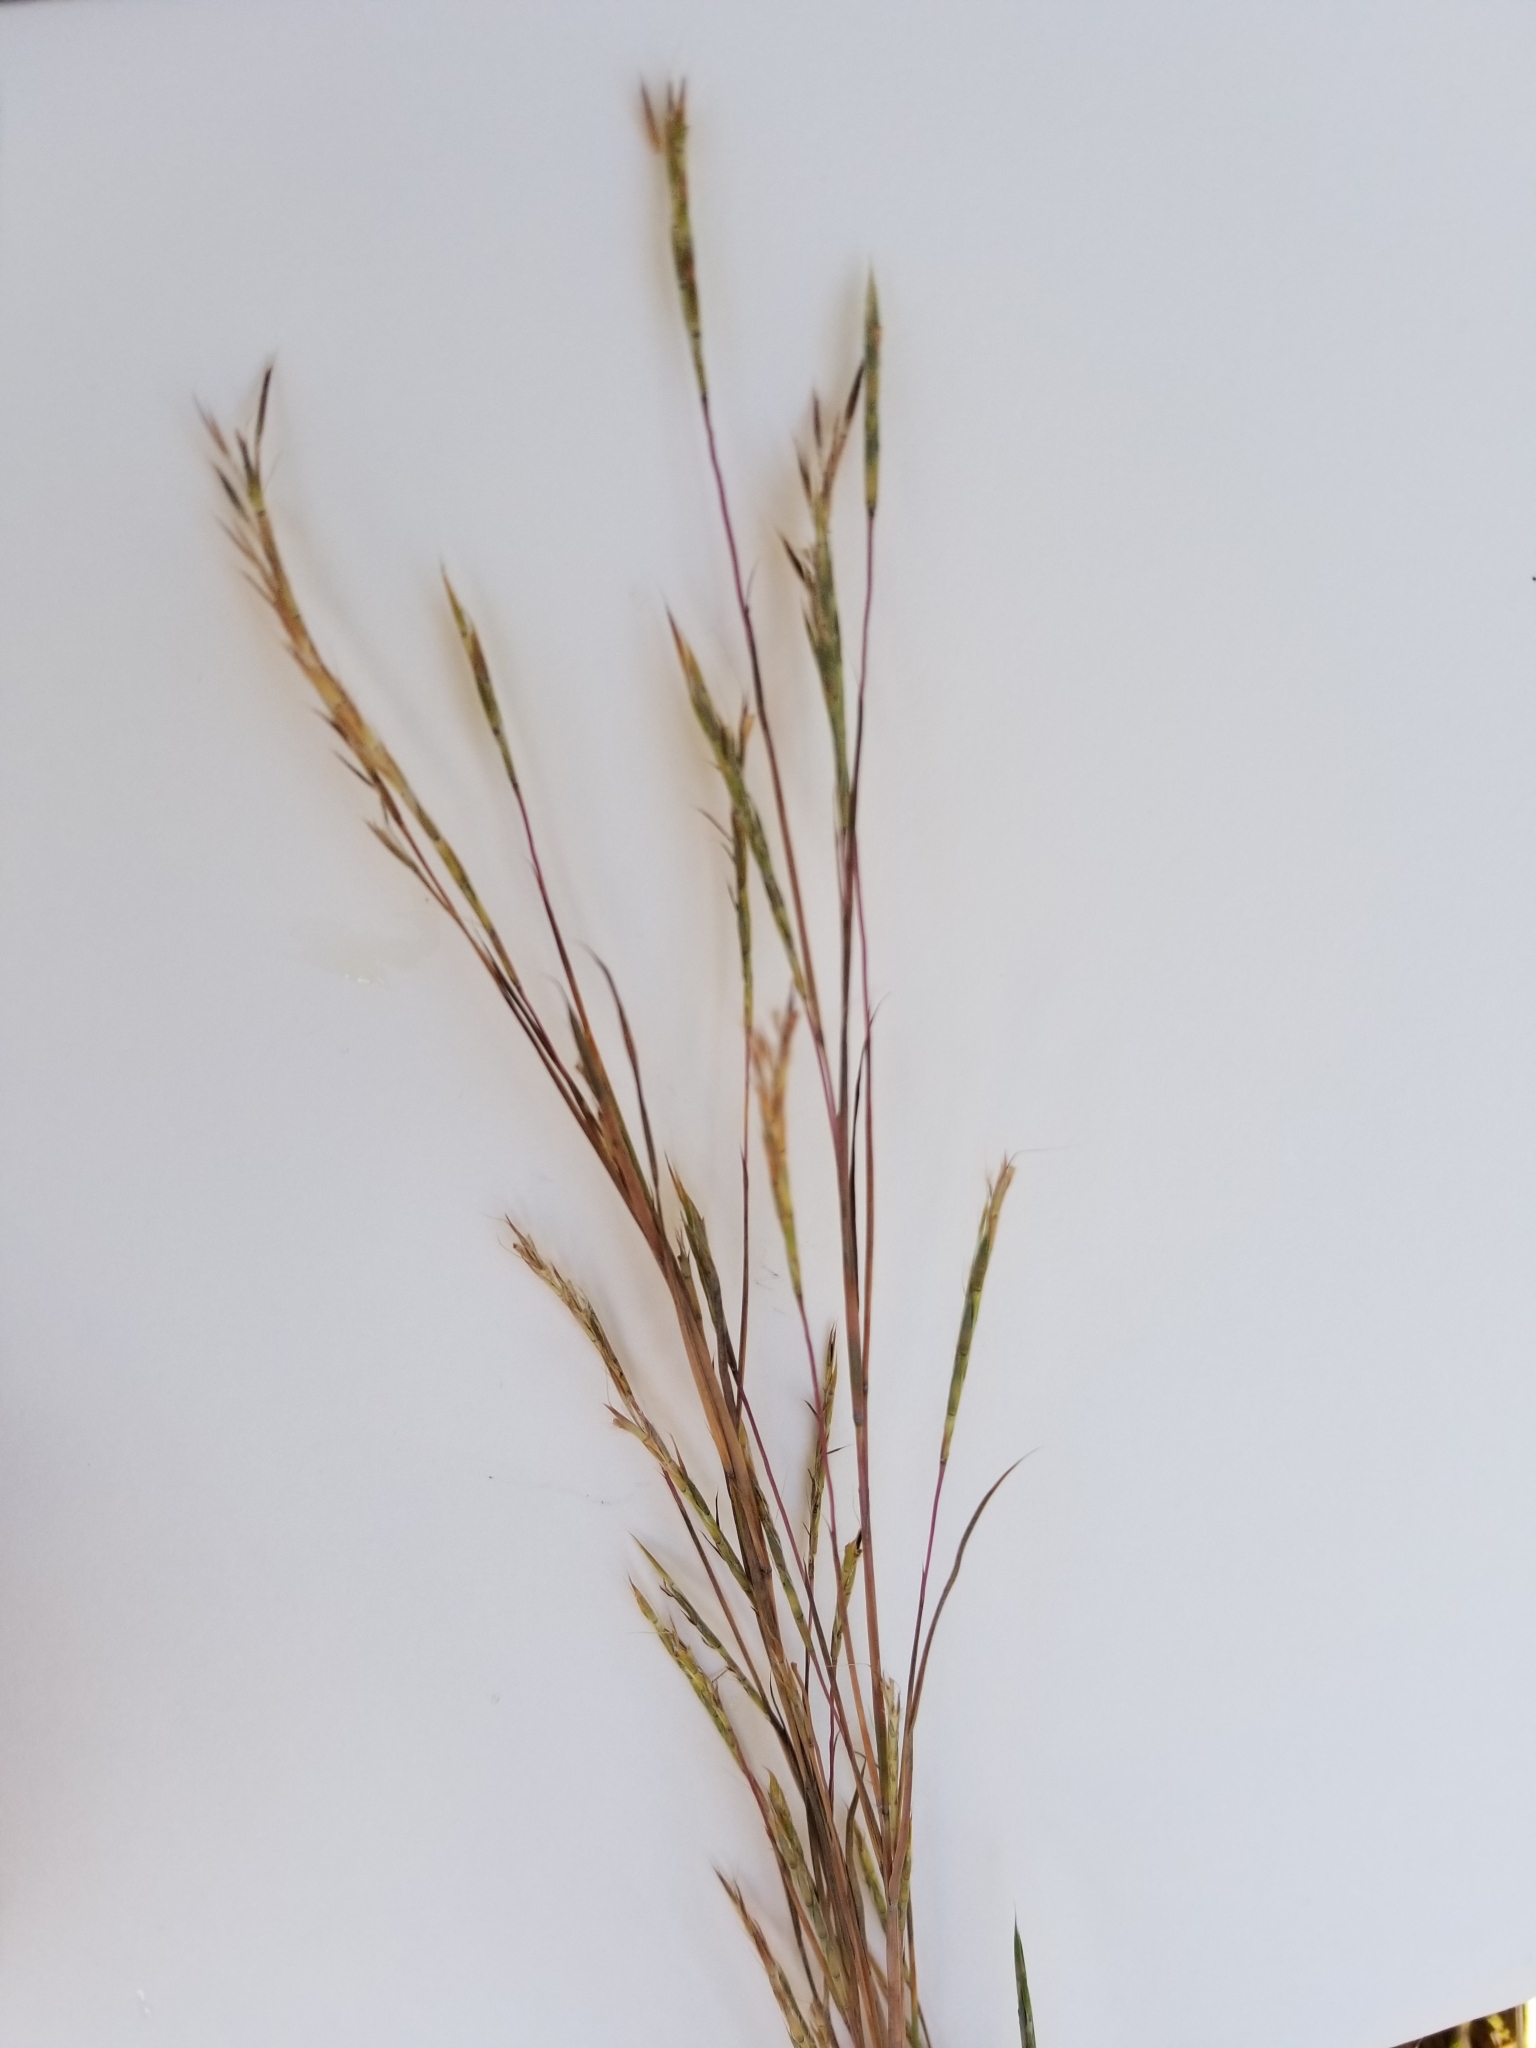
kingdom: Plantae
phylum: Tracheophyta
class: Liliopsida
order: Poales
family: Poaceae
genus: Schizachyrium
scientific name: Schizachyrium scoparium
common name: Little bluestem
